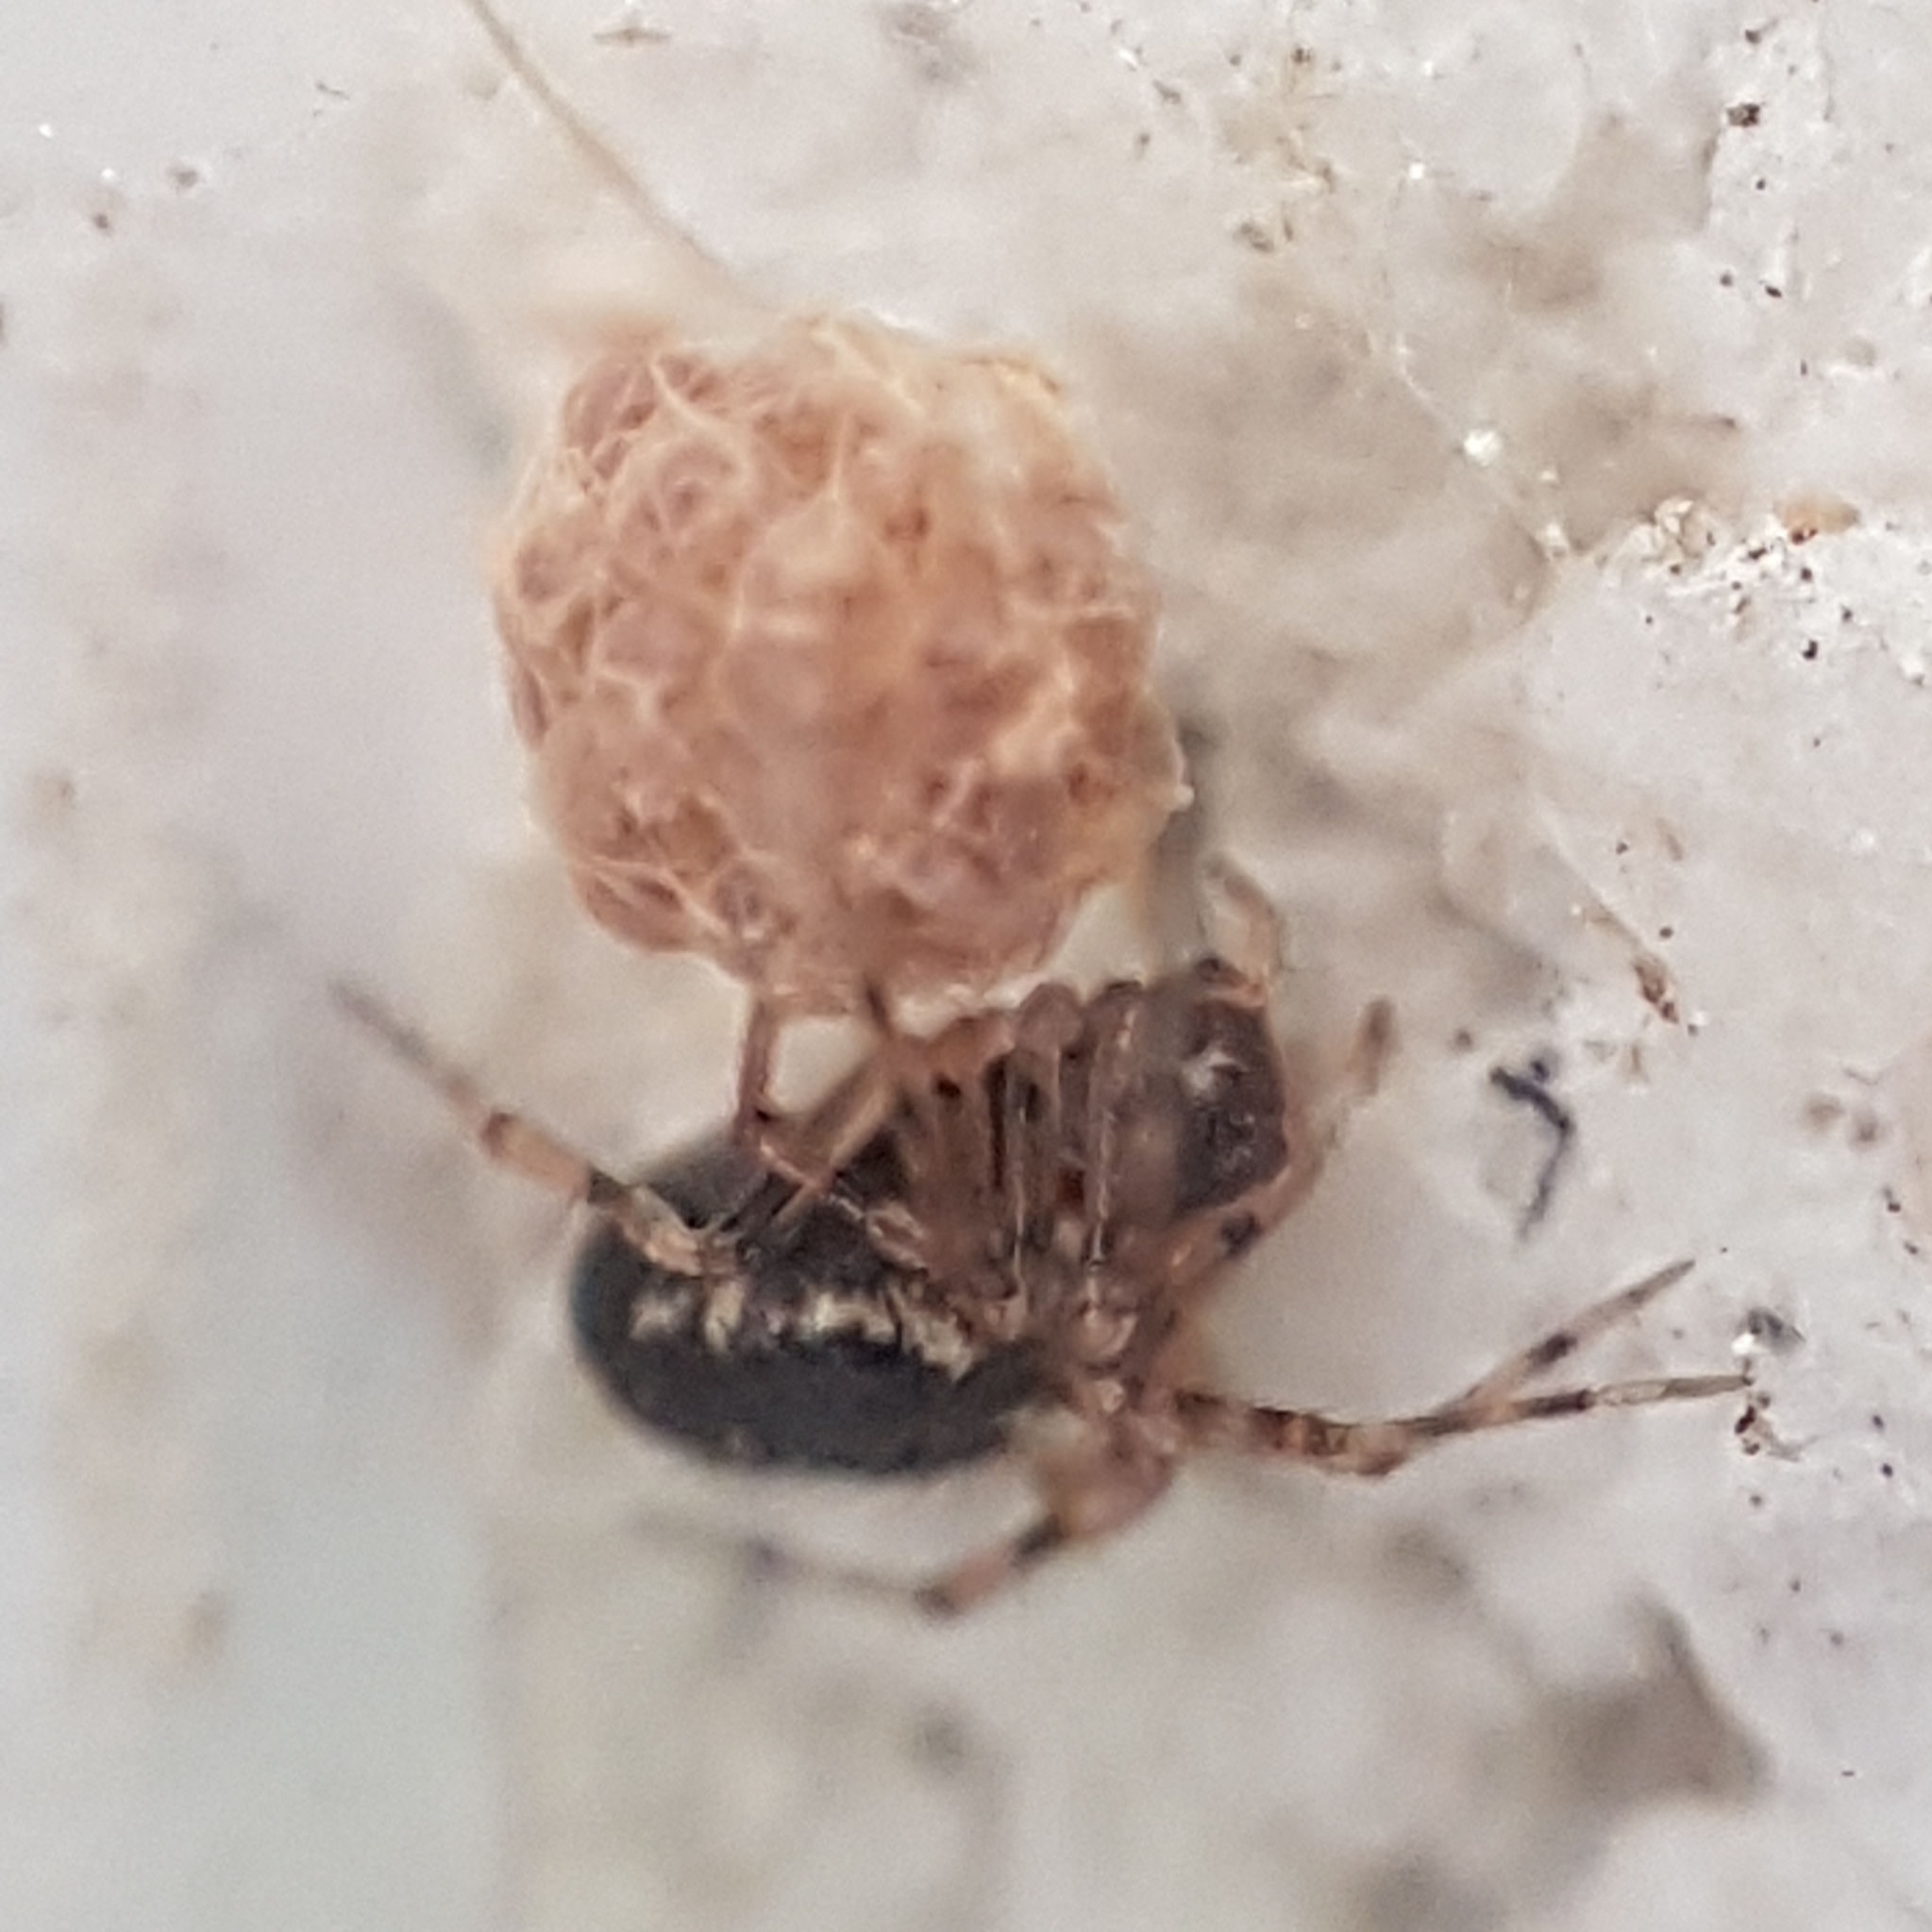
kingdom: Animalia
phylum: Arthropoda
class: Arachnida
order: Araneae
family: Theridiidae
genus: Sardinidion
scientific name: Sardinidion blackwalli
